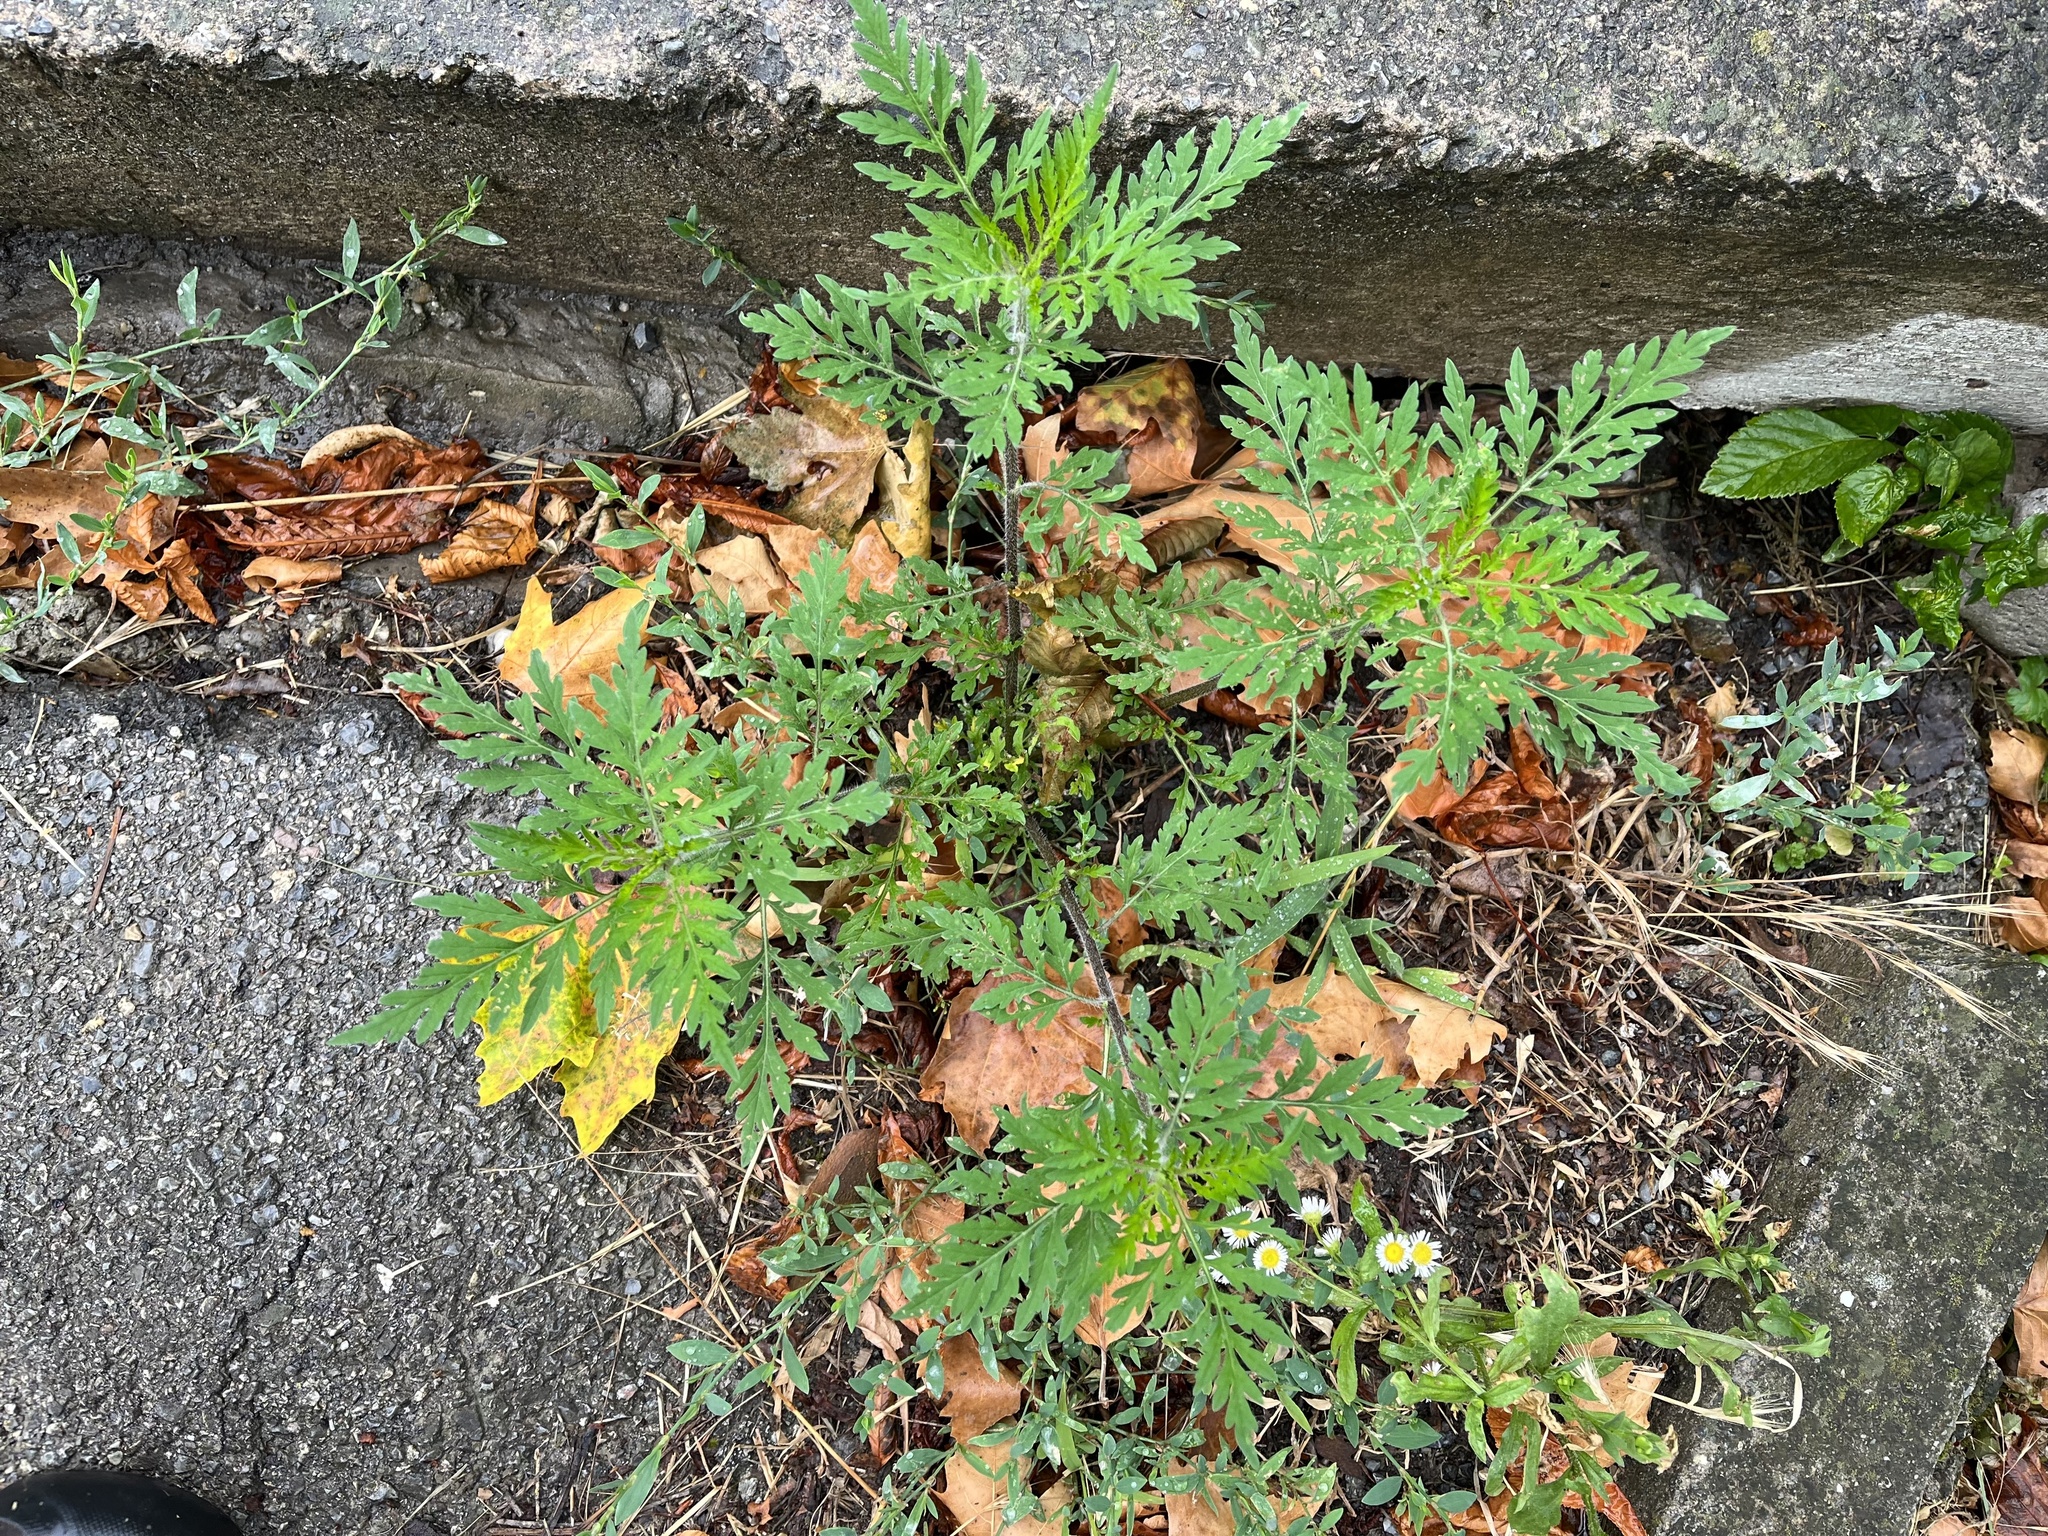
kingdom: Plantae
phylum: Tracheophyta
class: Magnoliopsida
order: Asterales
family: Asteraceae
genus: Ambrosia
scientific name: Ambrosia artemisiifolia
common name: Annual ragweed
